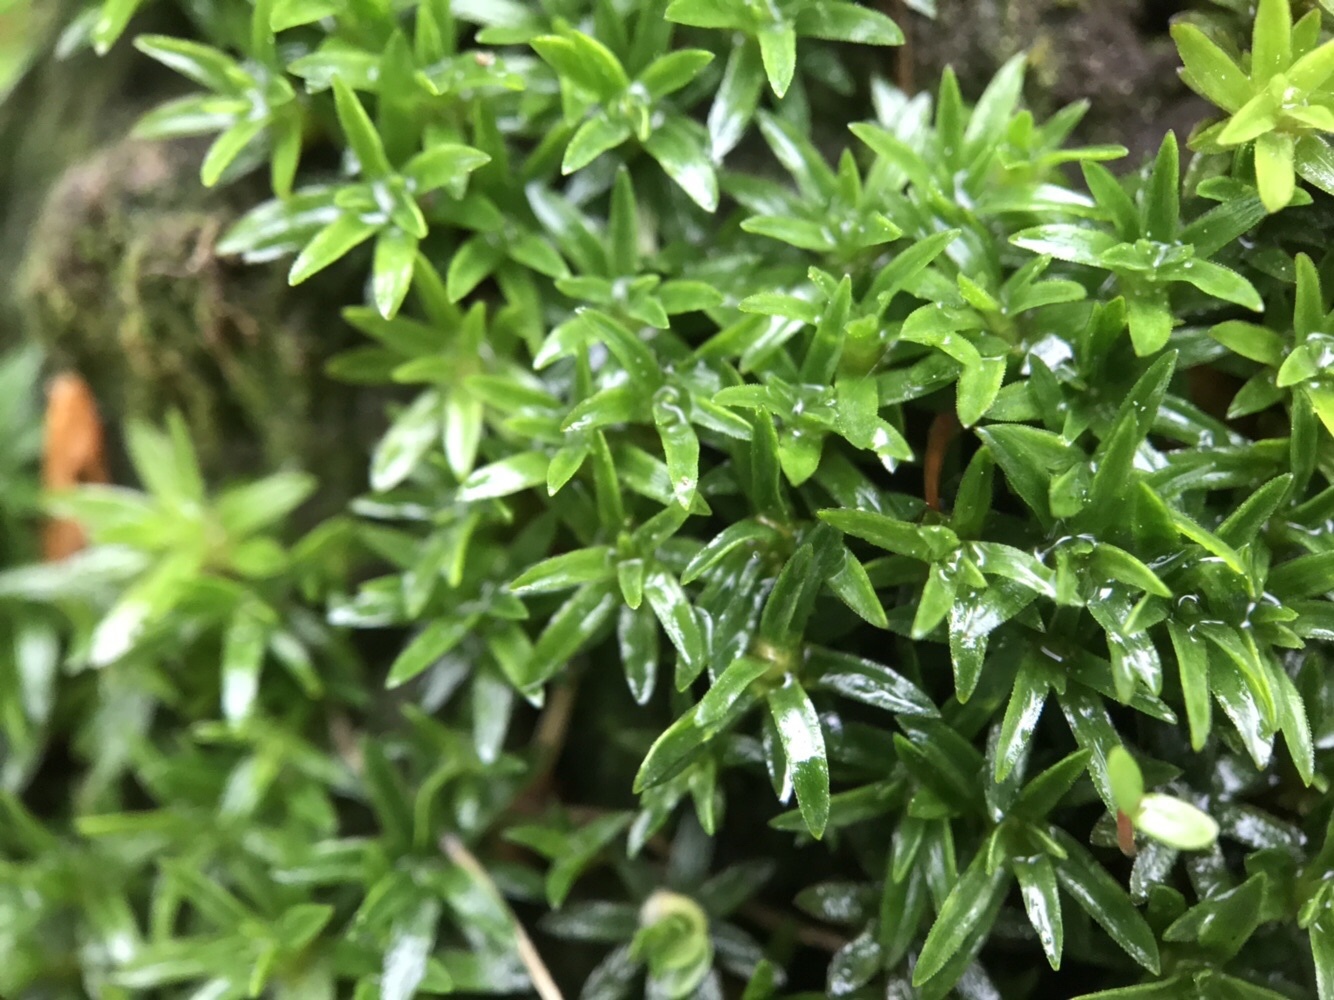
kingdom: Plantae
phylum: Bryophyta
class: Polytrichopsida
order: Polytrichales
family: Polytrichaceae
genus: Pogonatum
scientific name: Pogonatum aloides
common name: Aloe haircap
